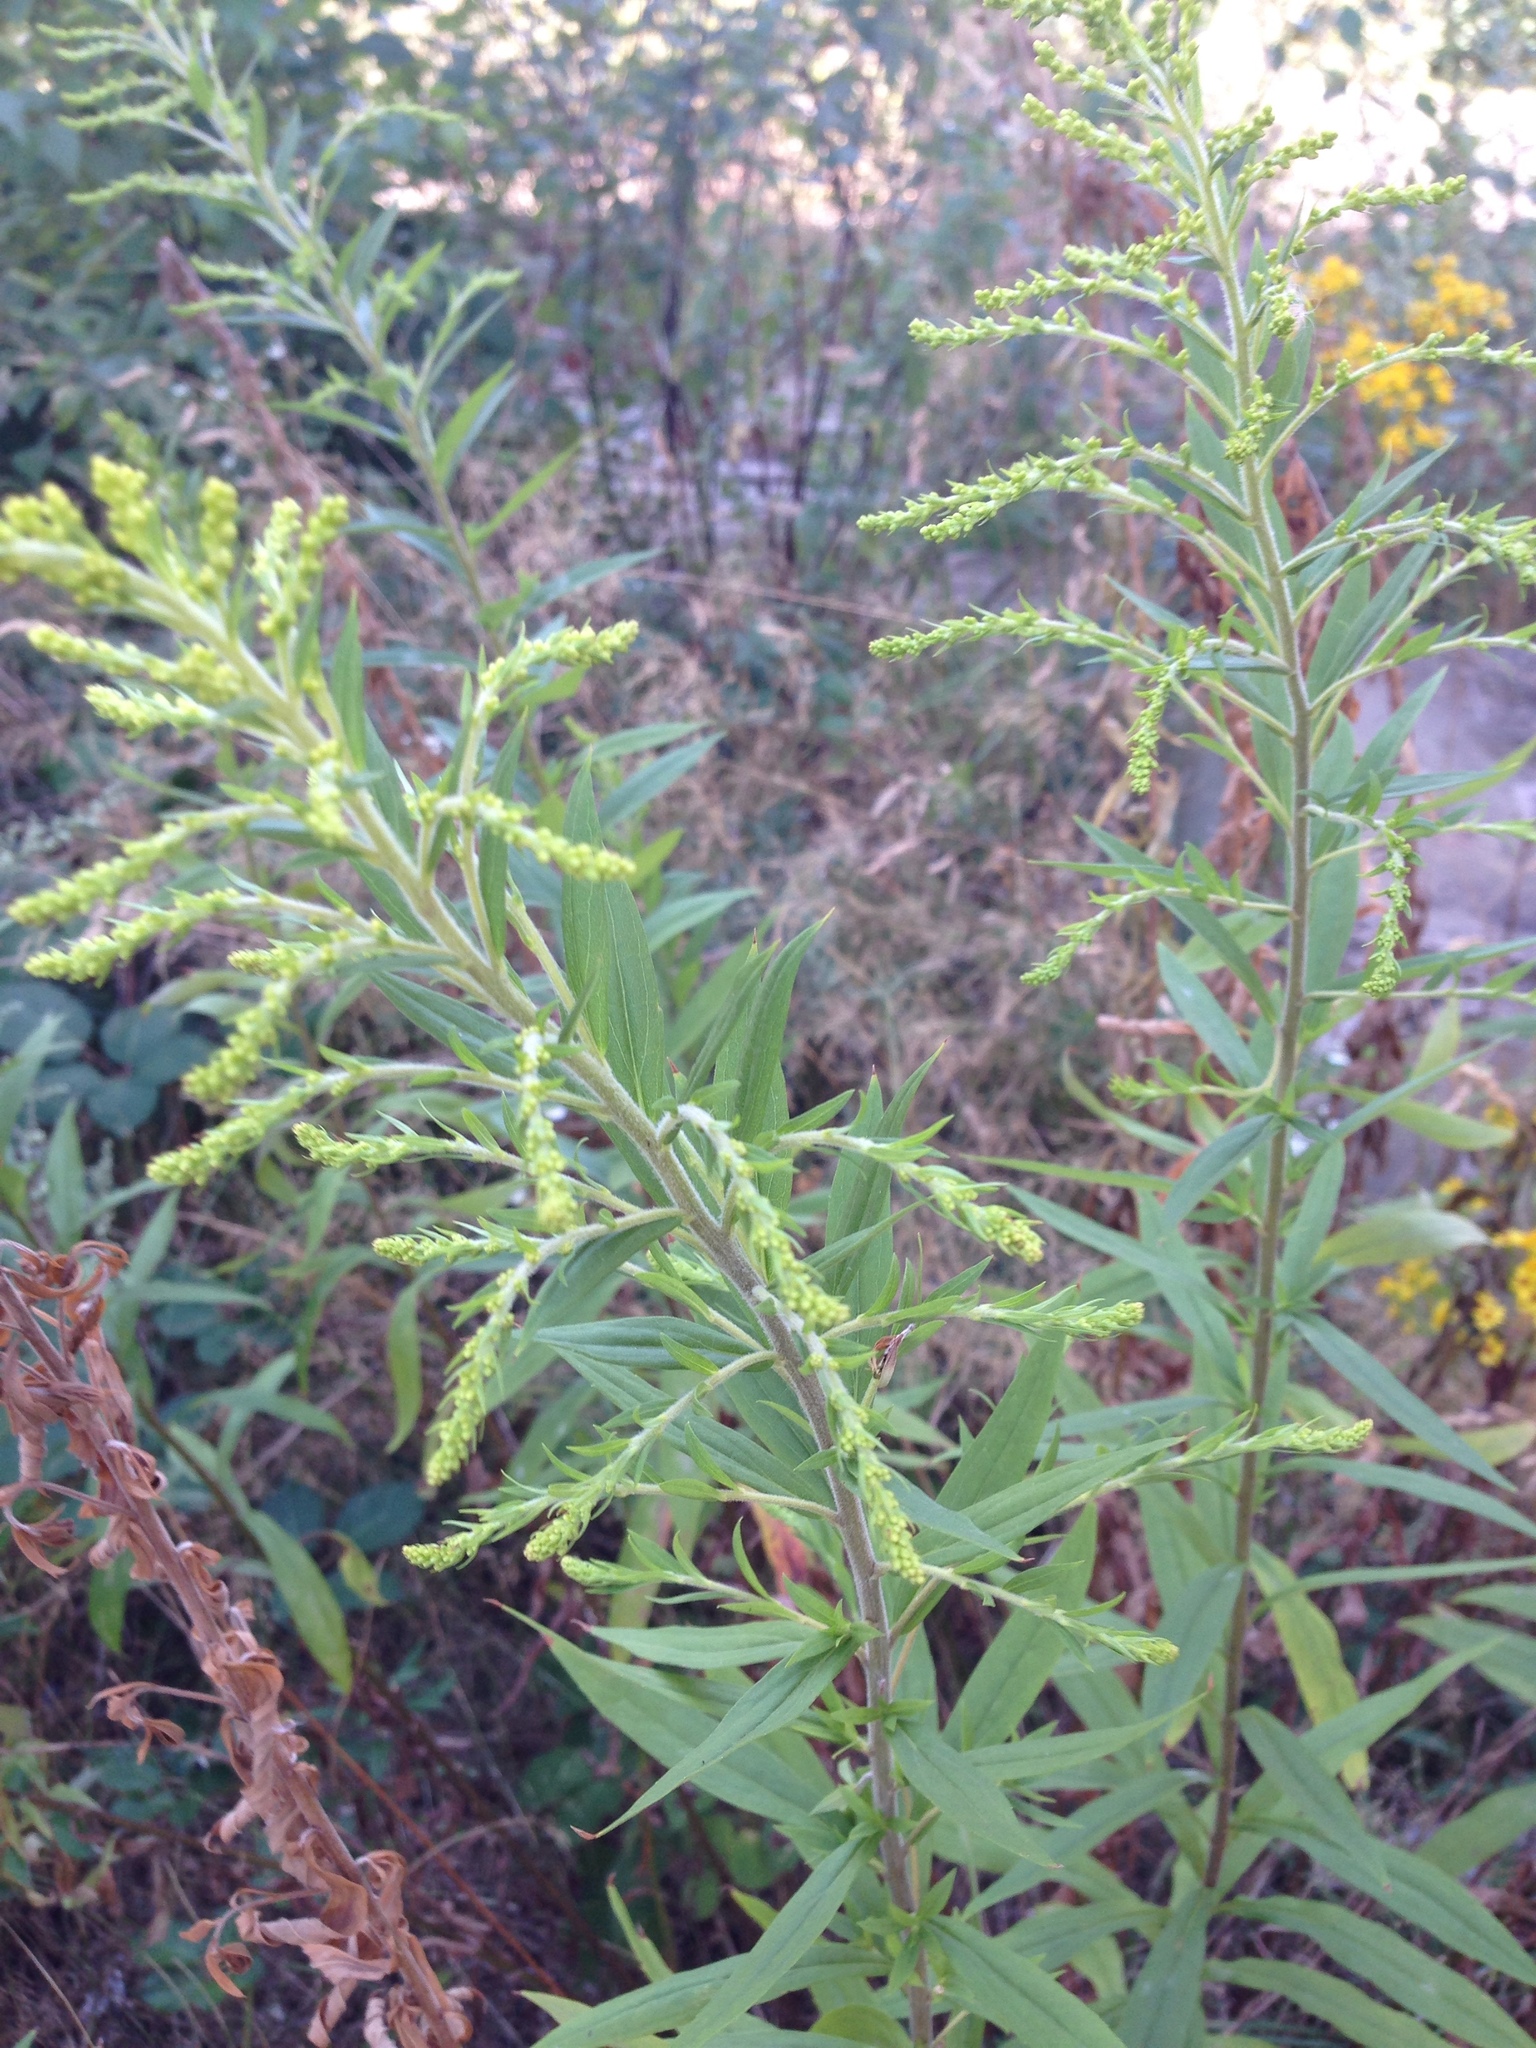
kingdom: Plantae
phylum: Tracheophyta
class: Magnoliopsida
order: Asterales
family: Asteraceae
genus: Solidago
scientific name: Solidago canadensis
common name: Canada goldenrod
